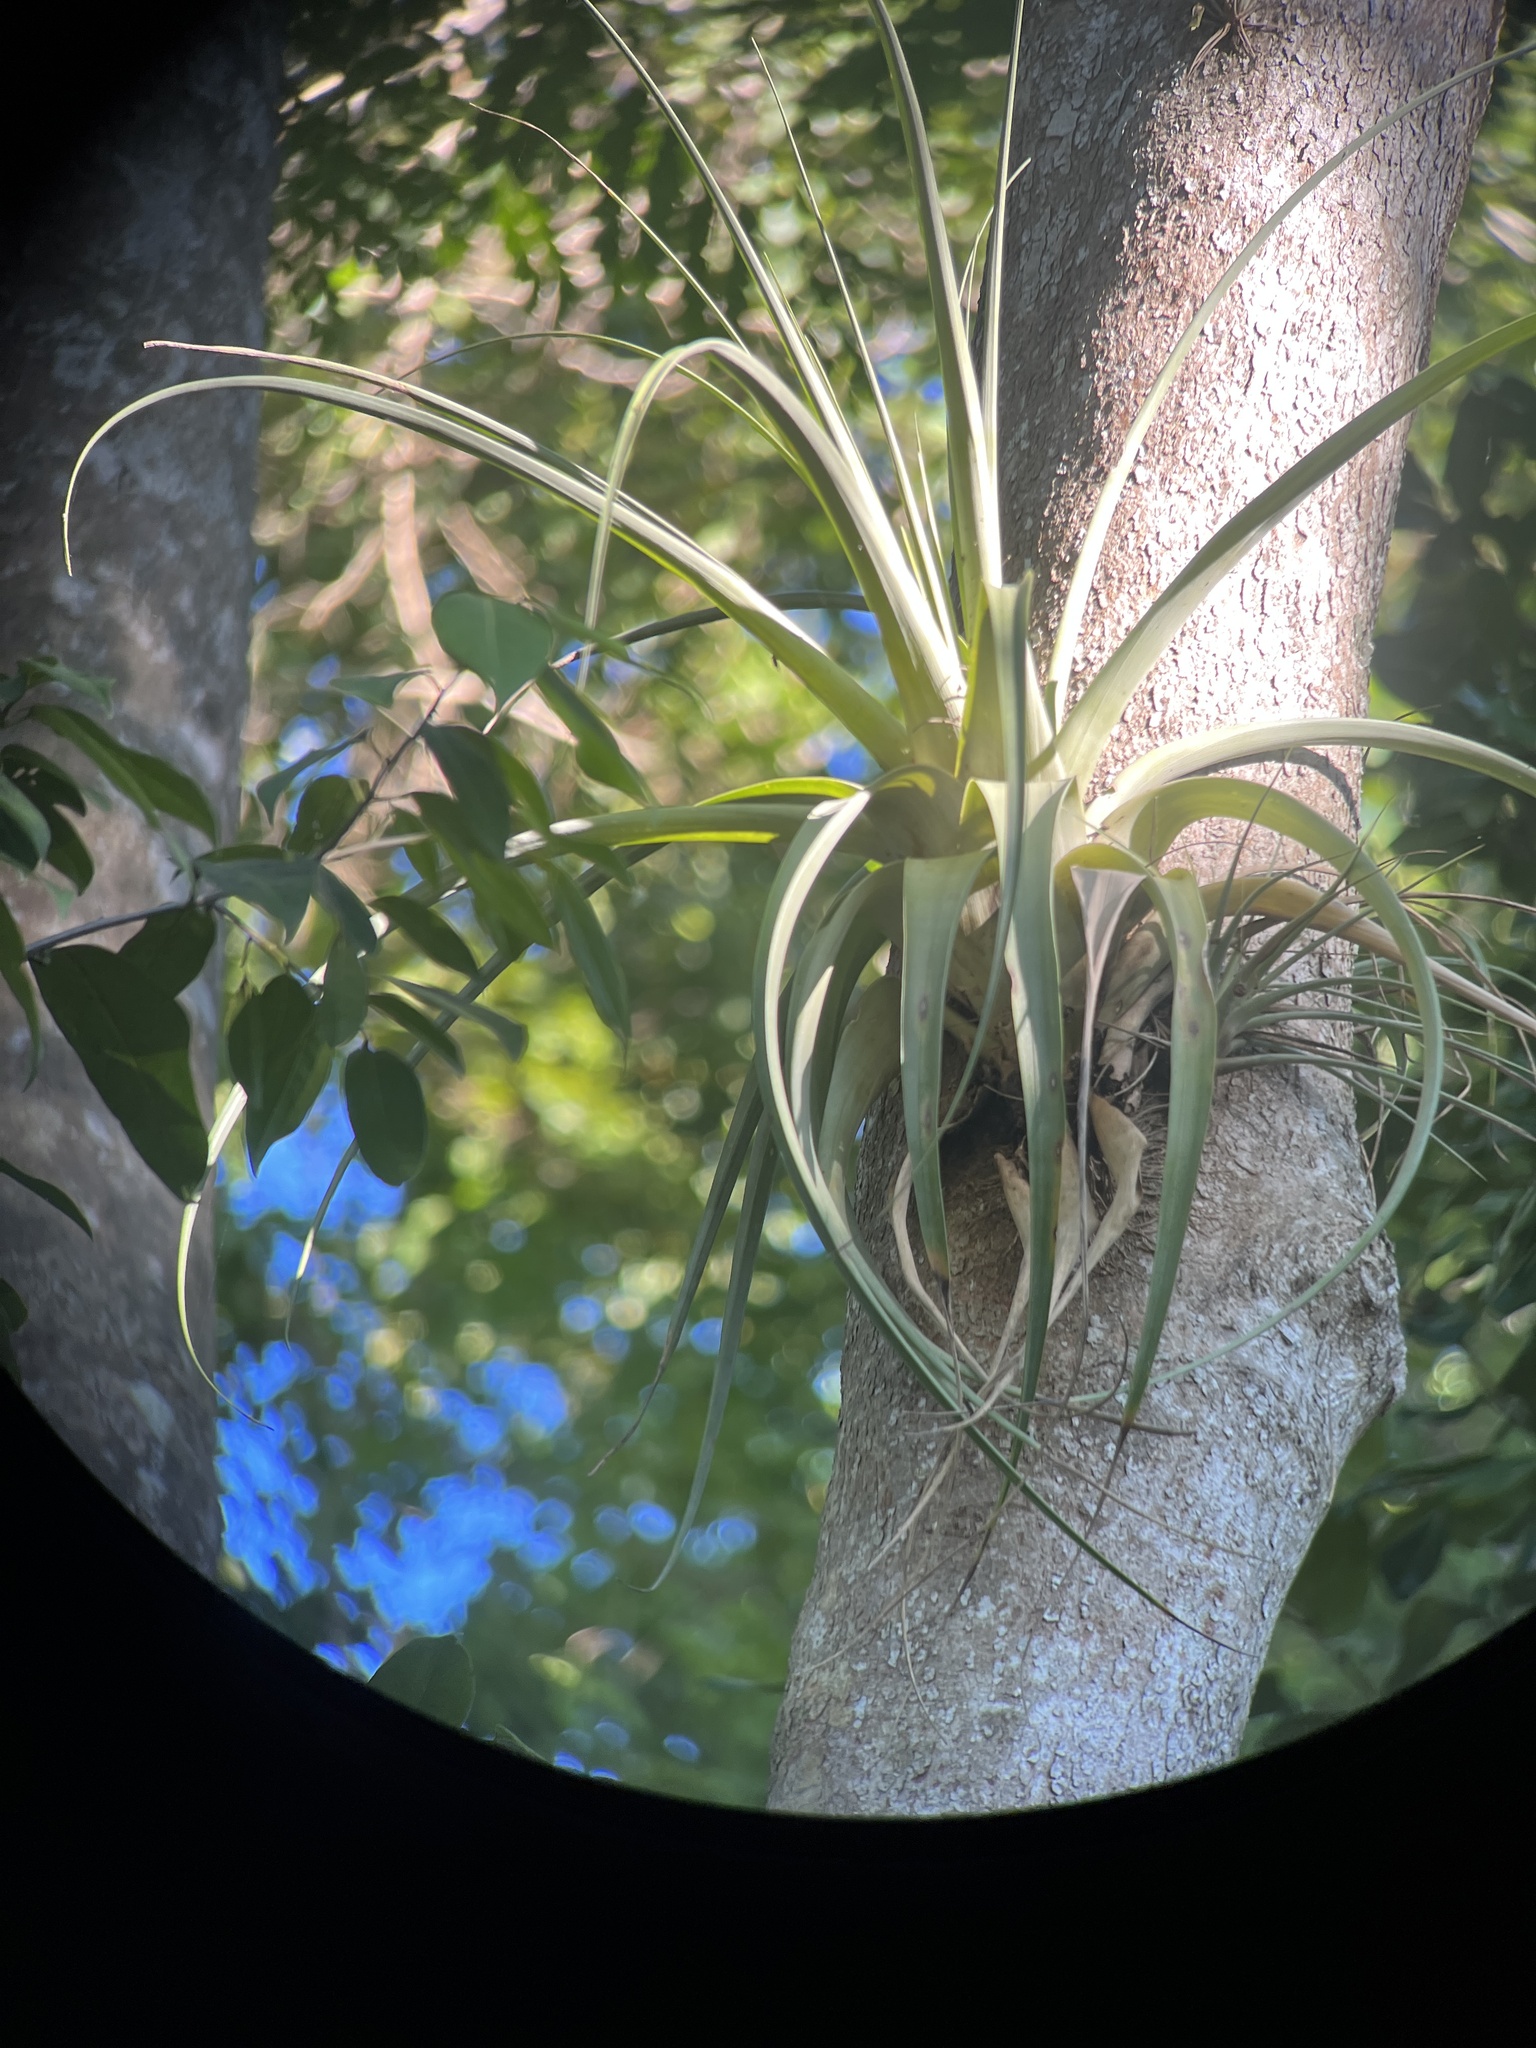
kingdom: Plantae
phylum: Tracheophyta
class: Liliopsida
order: Poales
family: Bromeliaceae
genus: Tillandsia
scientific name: Tillandsia utriculata
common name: Wild pine
